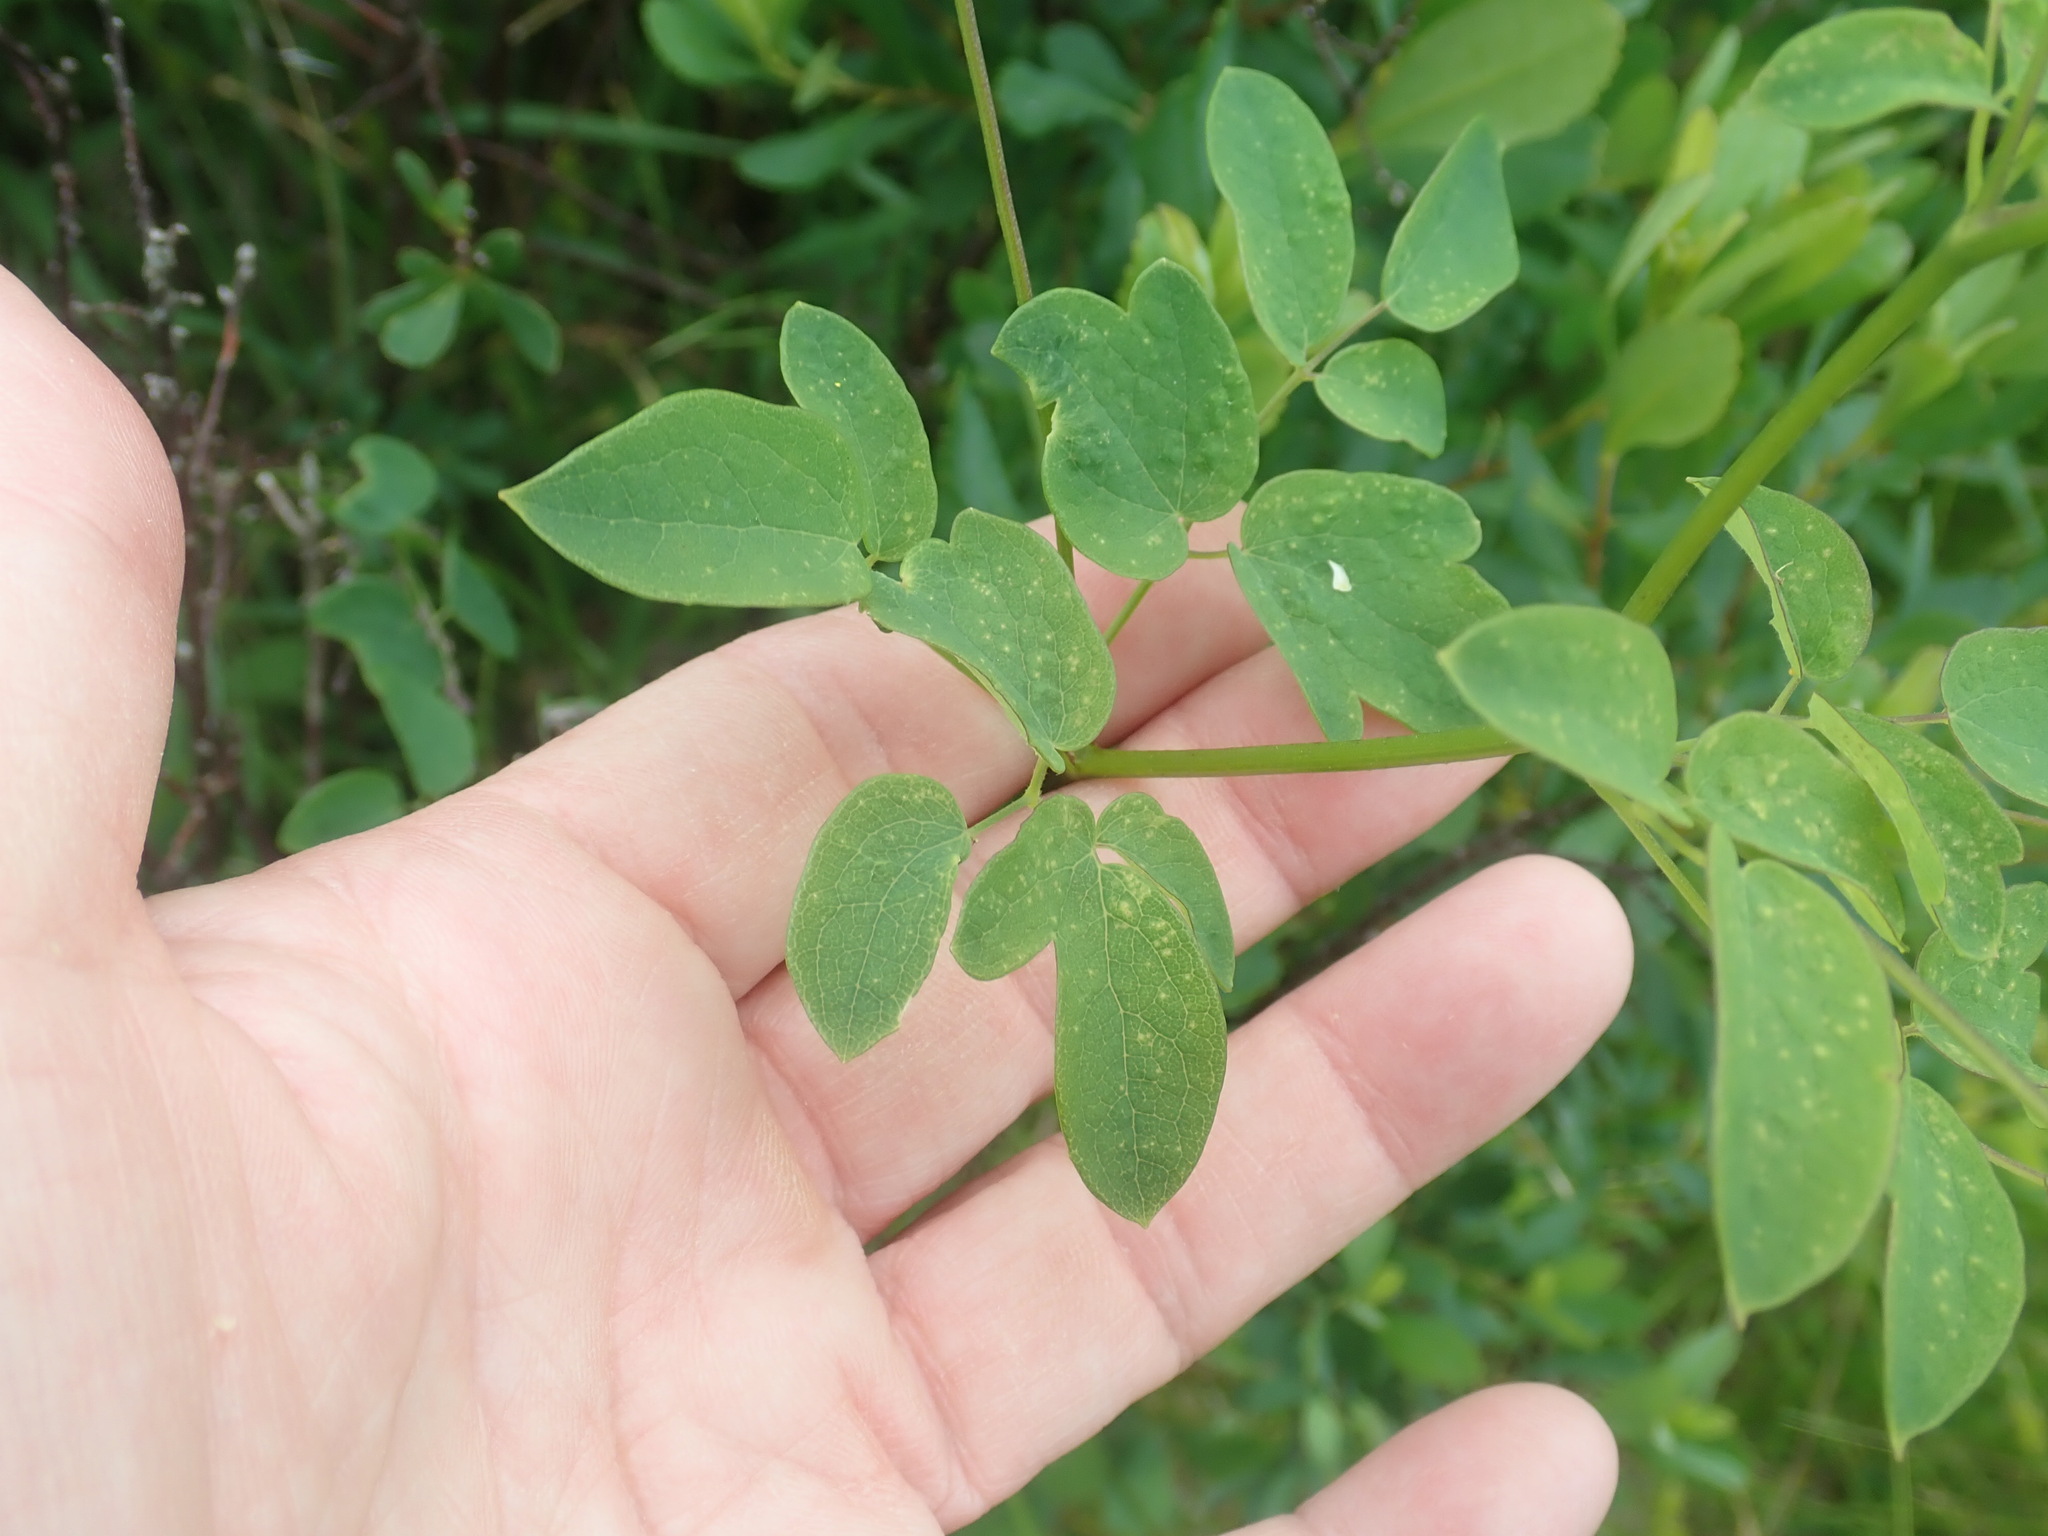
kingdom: Plantae
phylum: Tracheophyta
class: Magnoliopsida
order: Ranunculales
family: Ranunculaceae
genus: Thalictrum
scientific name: Thalictrum pubescens
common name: King-of-the-meadow
